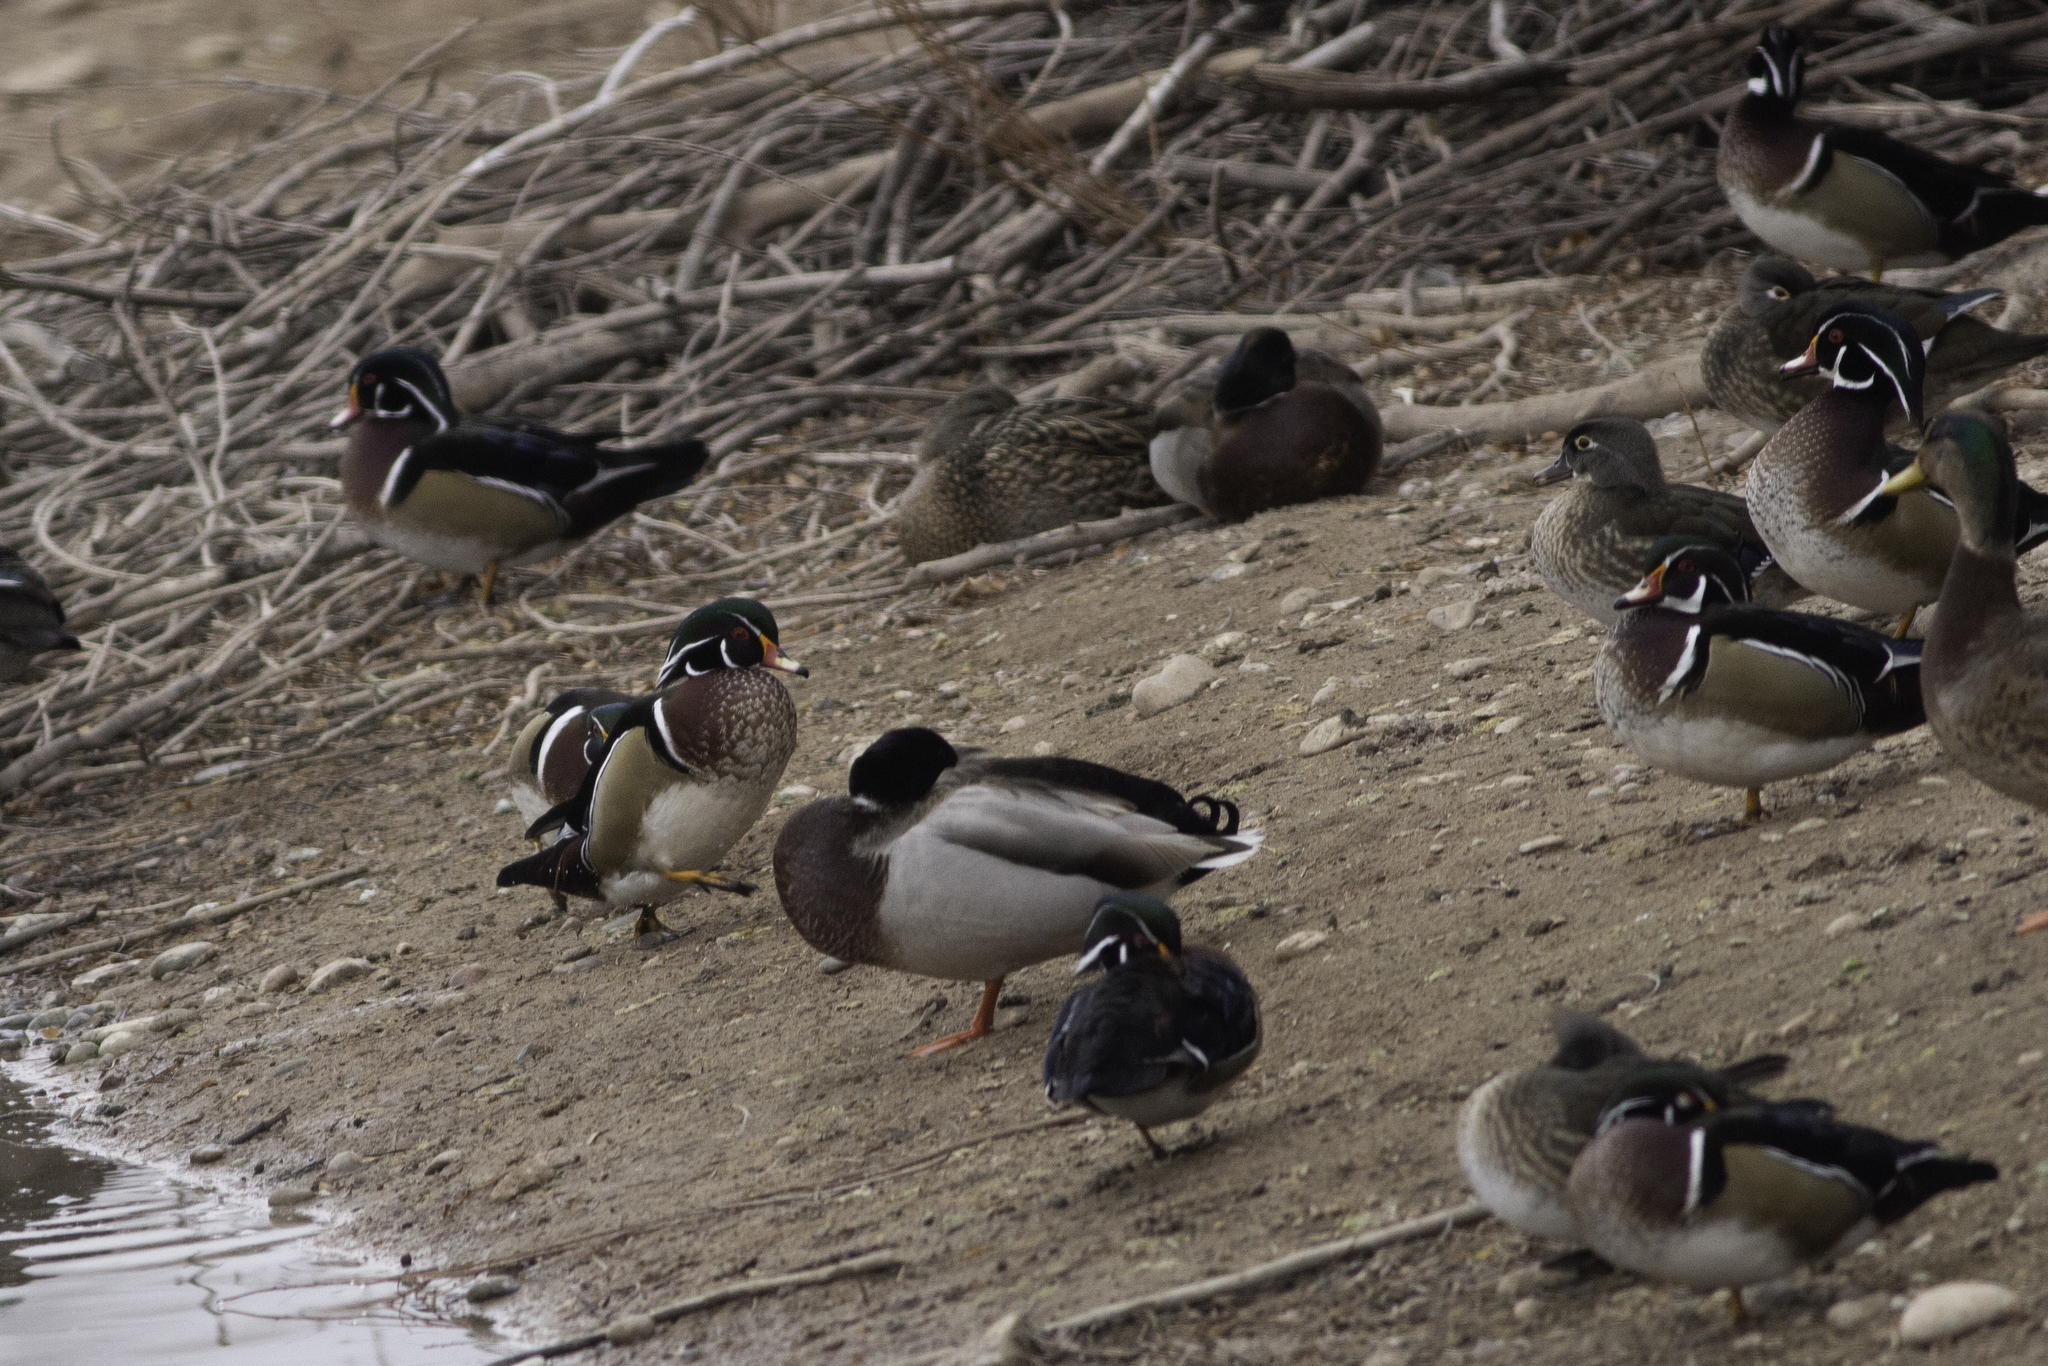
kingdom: Animalia
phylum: Chordata
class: Aves
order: Anseriformes
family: Anatidae
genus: Aix
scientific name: Aix sponsa
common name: Wood duck
